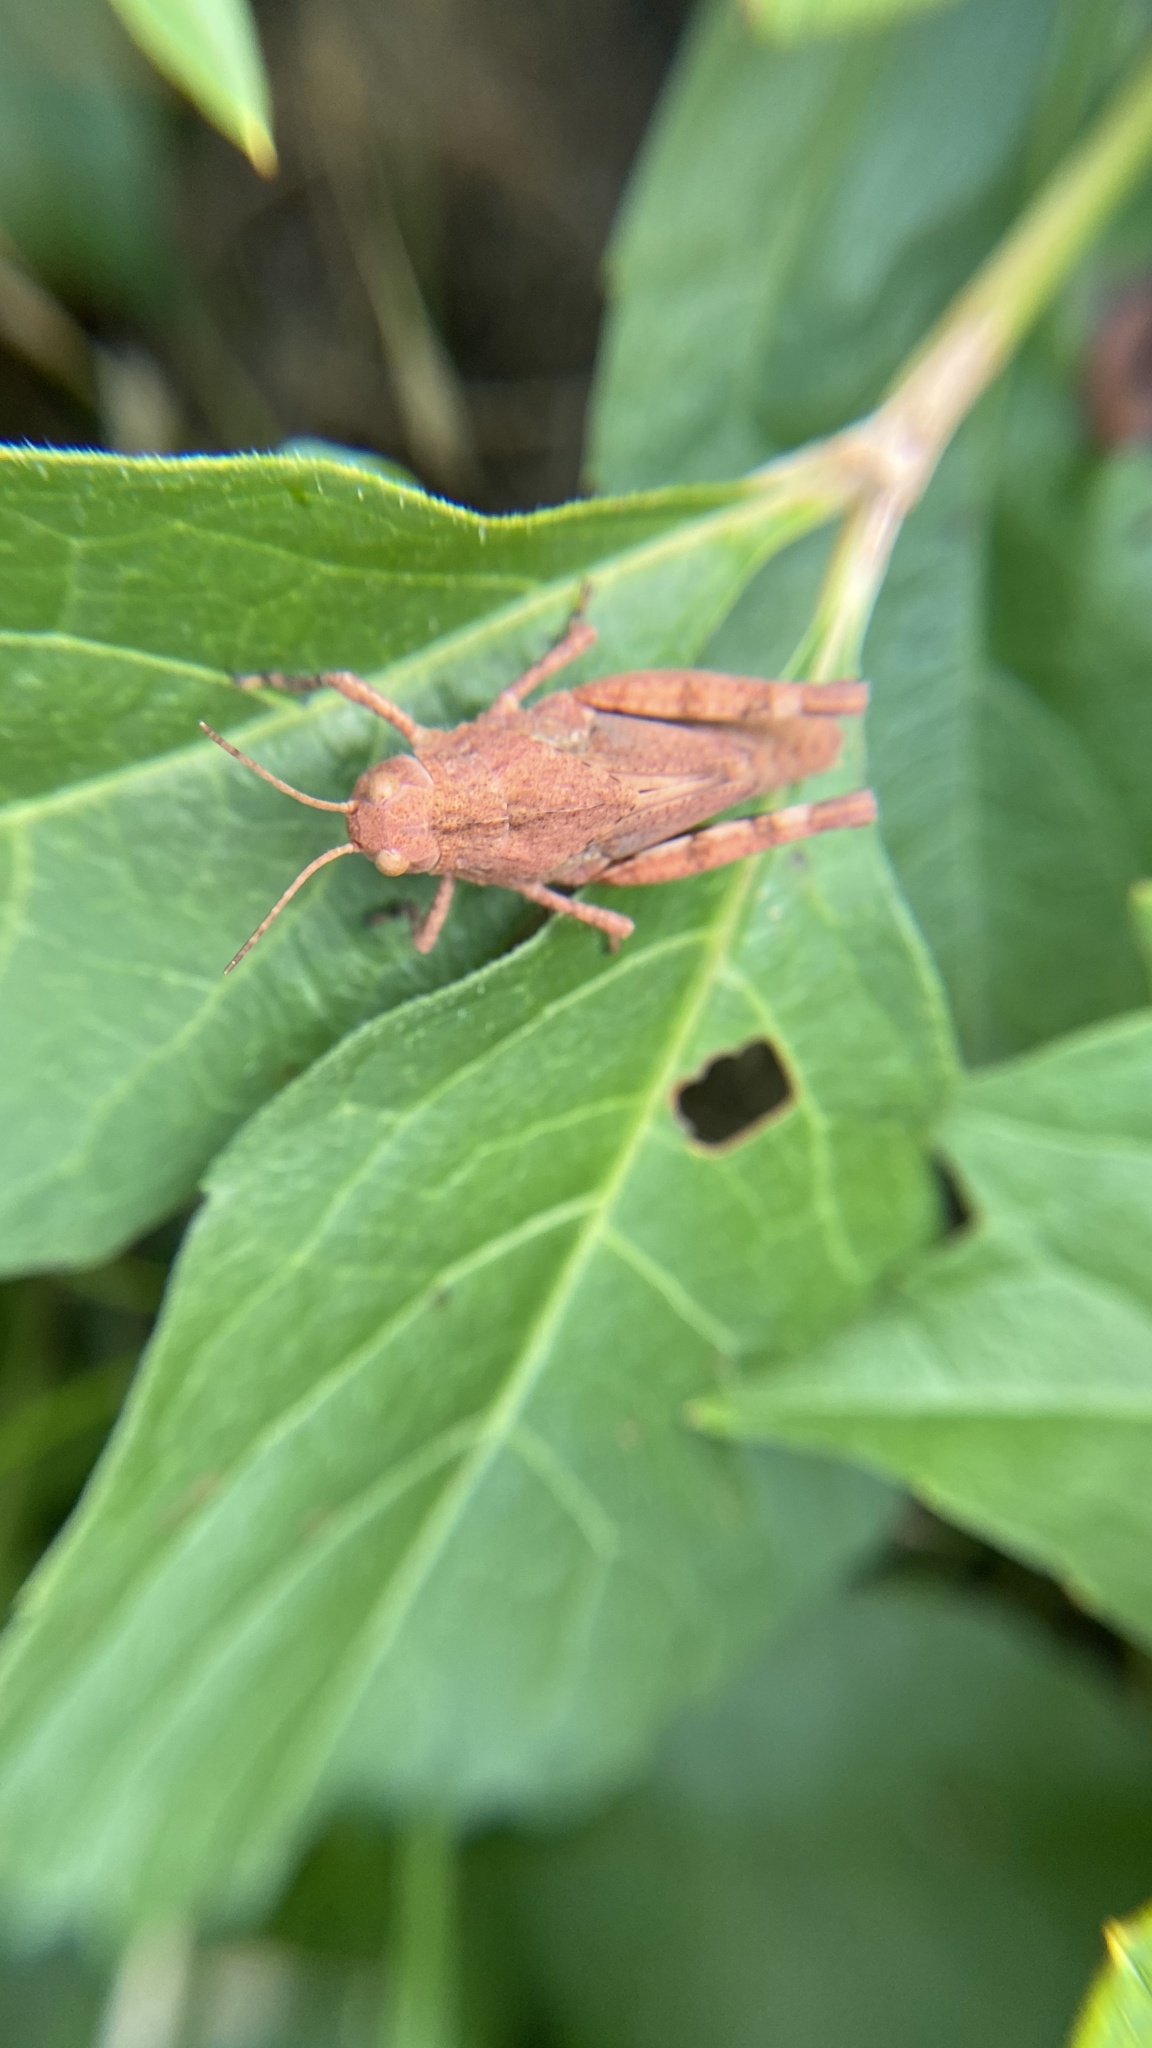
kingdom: Animalia
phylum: Arthropoda
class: Insecta
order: Orthoptera
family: Acrididae
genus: Dissosteira
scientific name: Dissosteira carolina
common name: Carolina grasshopper
